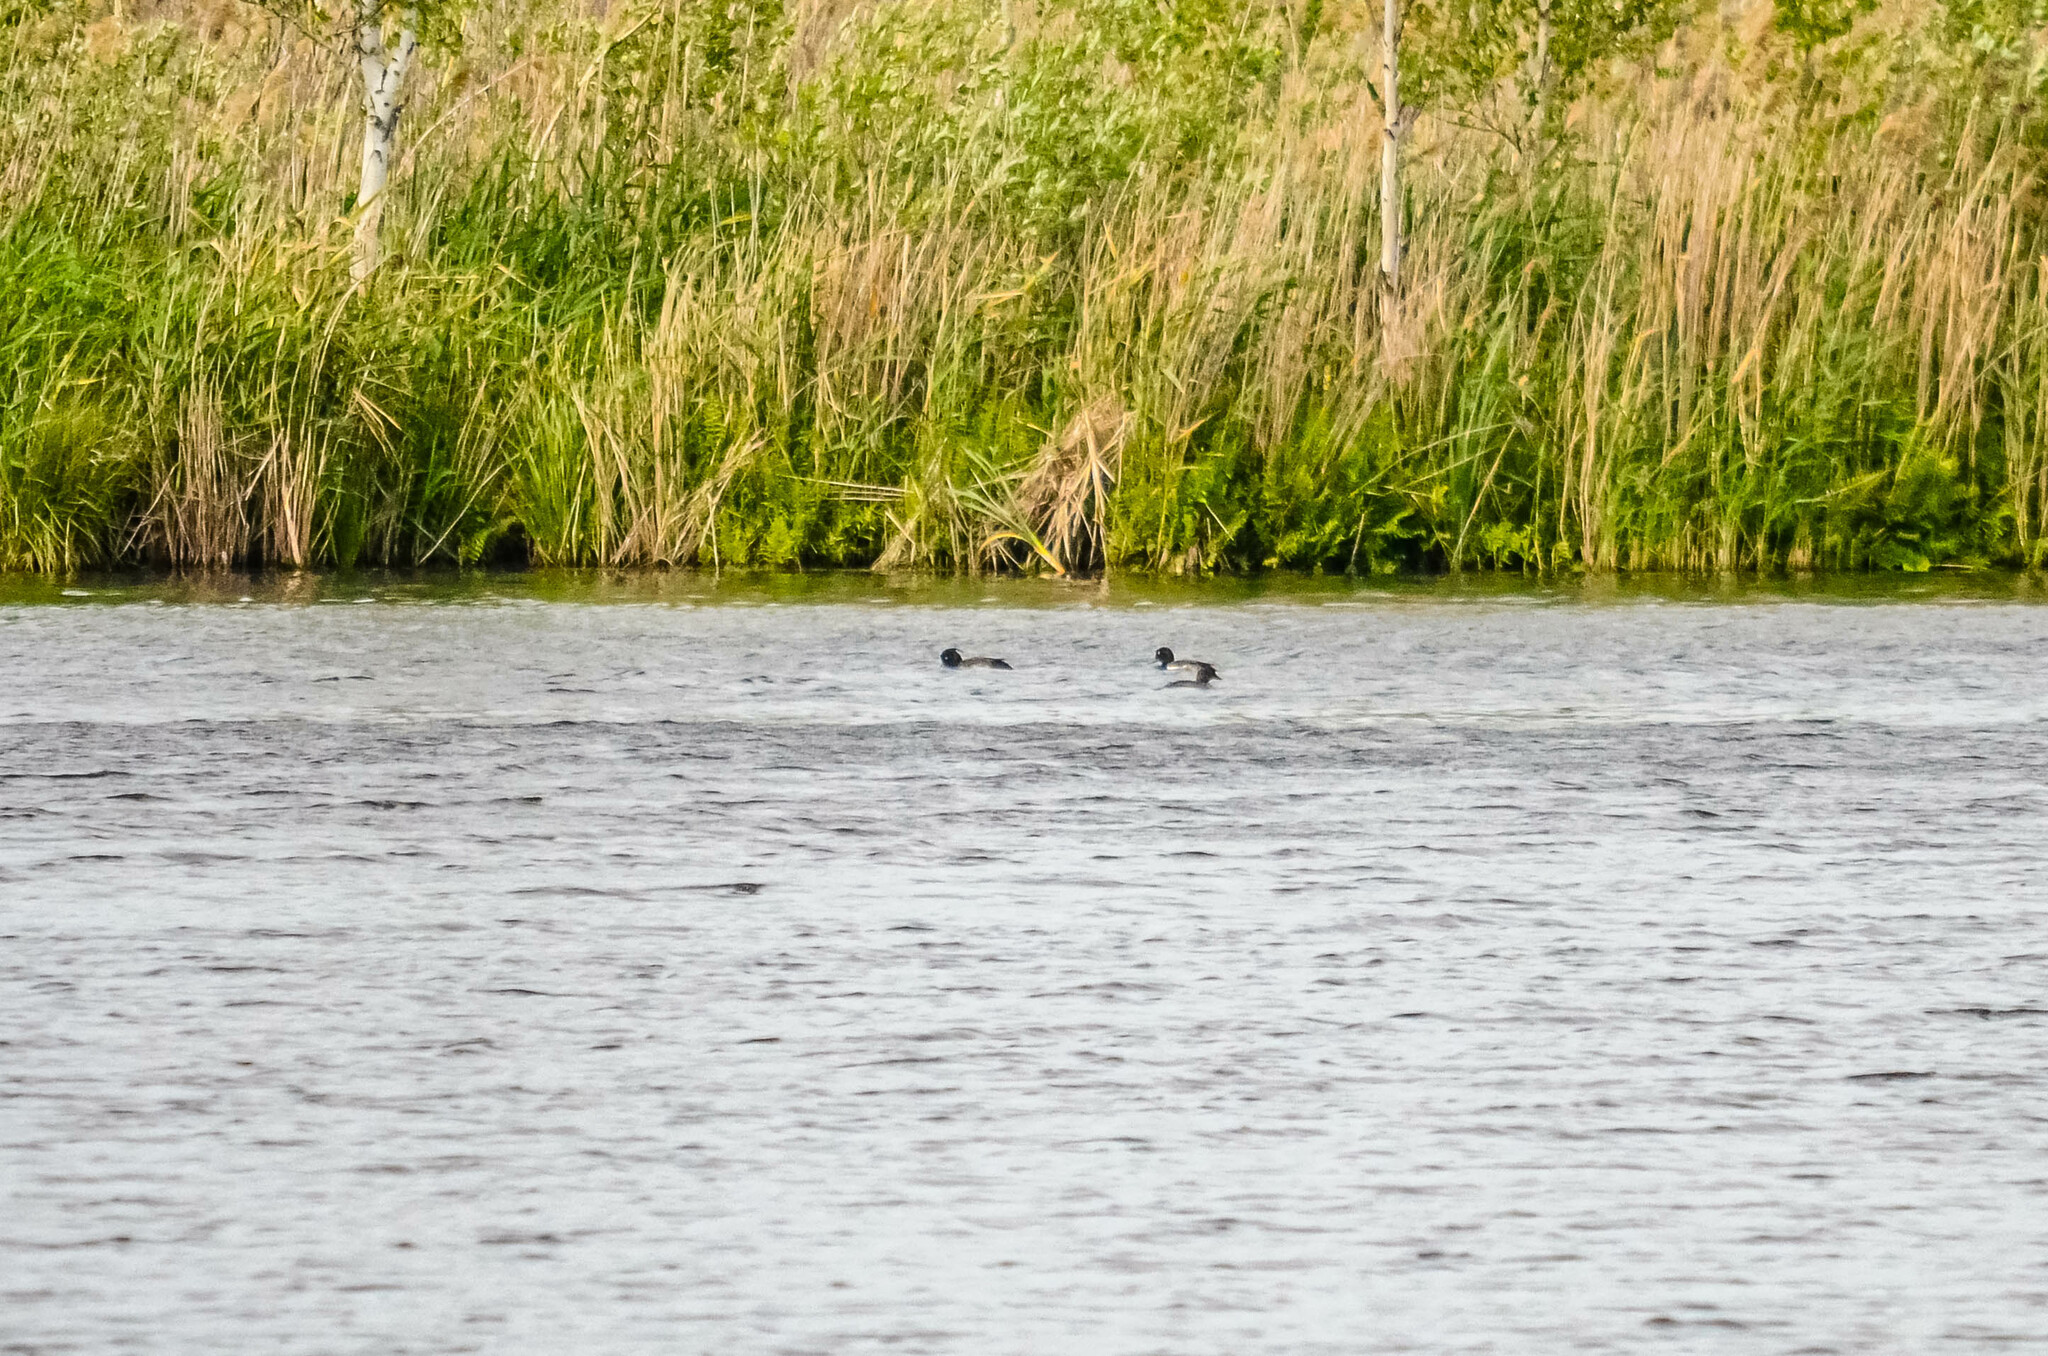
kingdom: Animalia
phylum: Chordata
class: Aves
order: Anseriformes
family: Anatidae
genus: Aythya
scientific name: Aythya fuligula
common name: Tufted duck
